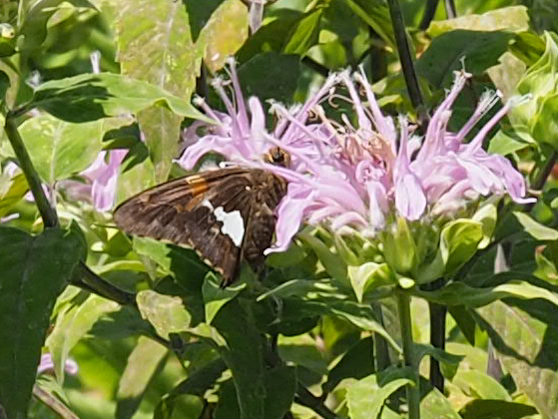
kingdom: Animalia
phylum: Arthropoda
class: Insecta
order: Lepidoptera
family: Hesperiidae
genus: Epargyreus
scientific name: Epargyreus clarus
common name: Silver-spotted skipper
